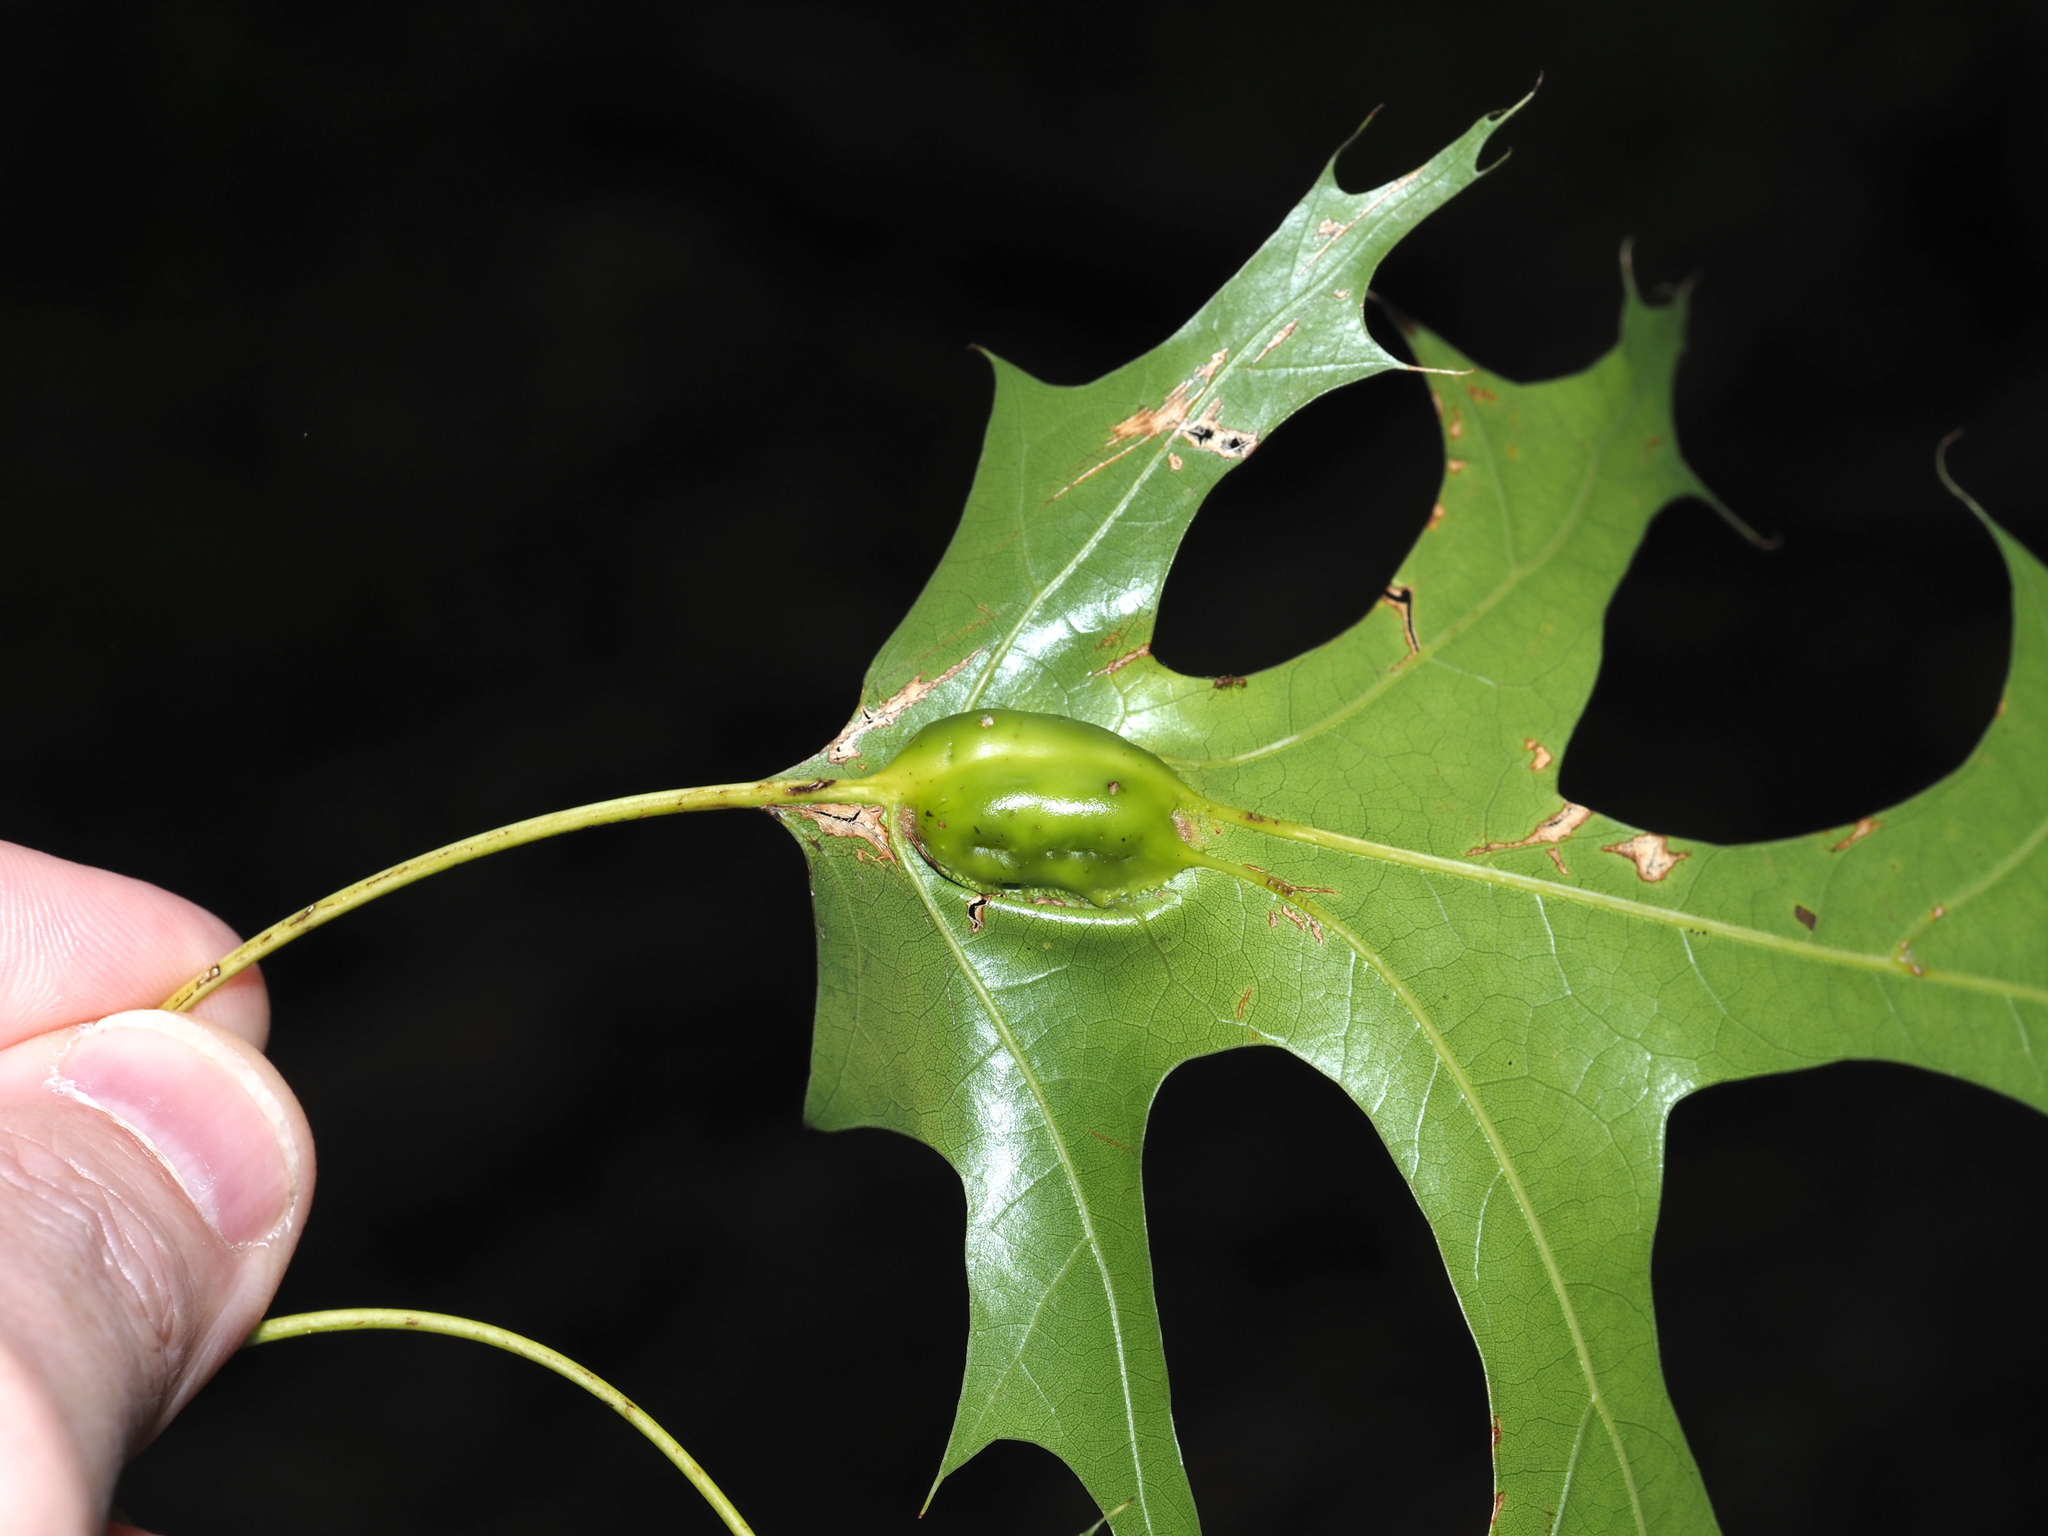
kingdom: Animalia
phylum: Arthropoda
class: Insecta
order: Hymenoptera
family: Cynipidae
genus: Melikaiella
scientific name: Melikaiella tumifica
